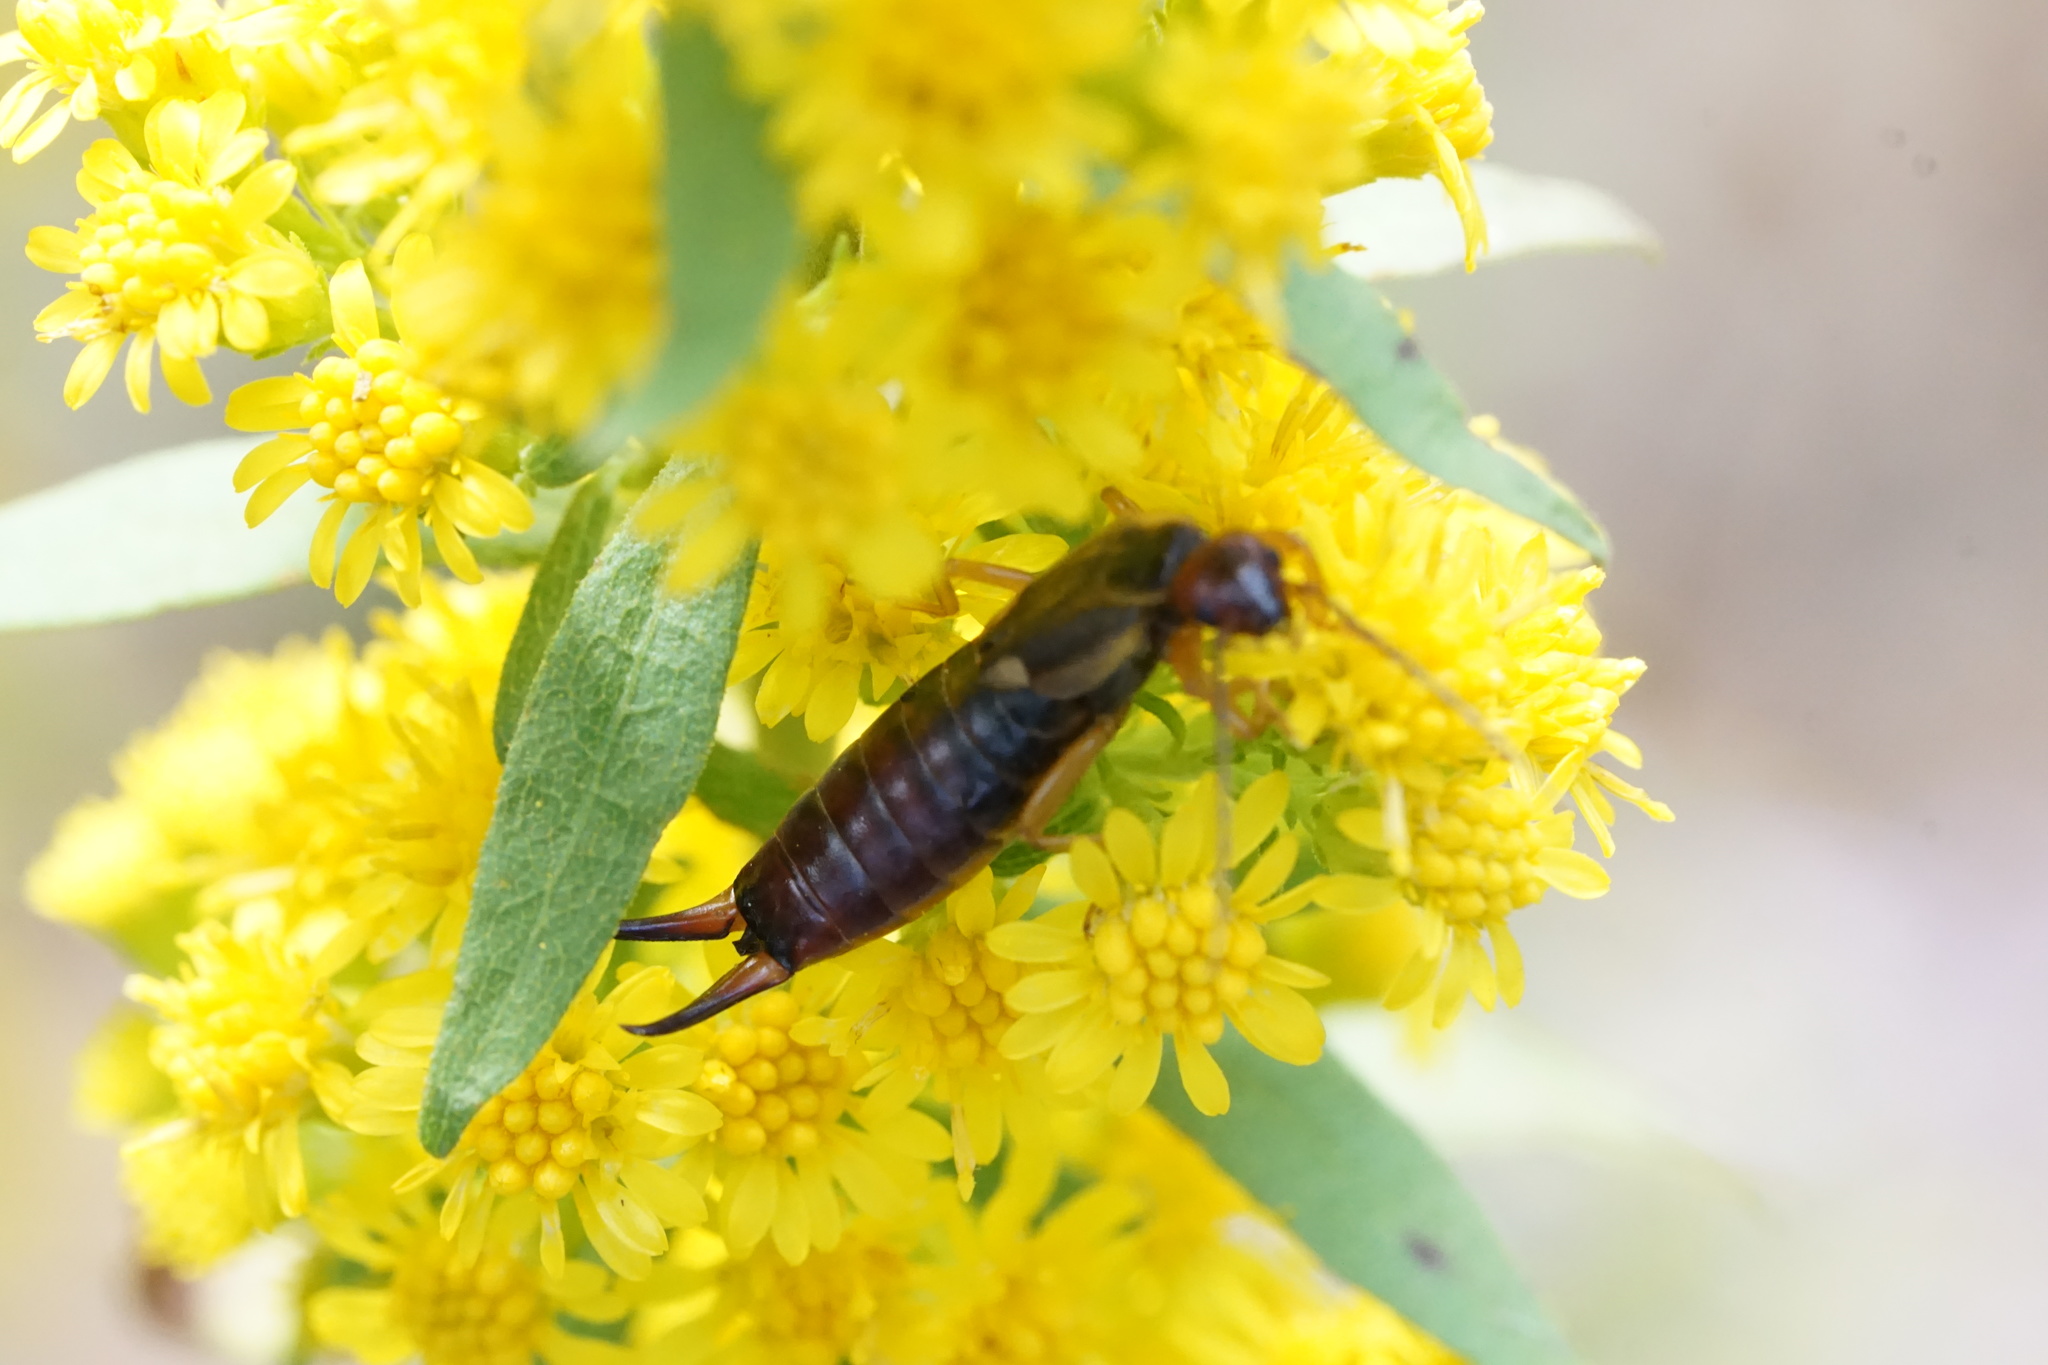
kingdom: Animalia
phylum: Arthropoda
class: Insecta
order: Dermaptera
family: Forficulidae
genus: Forficula
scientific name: Forficula
